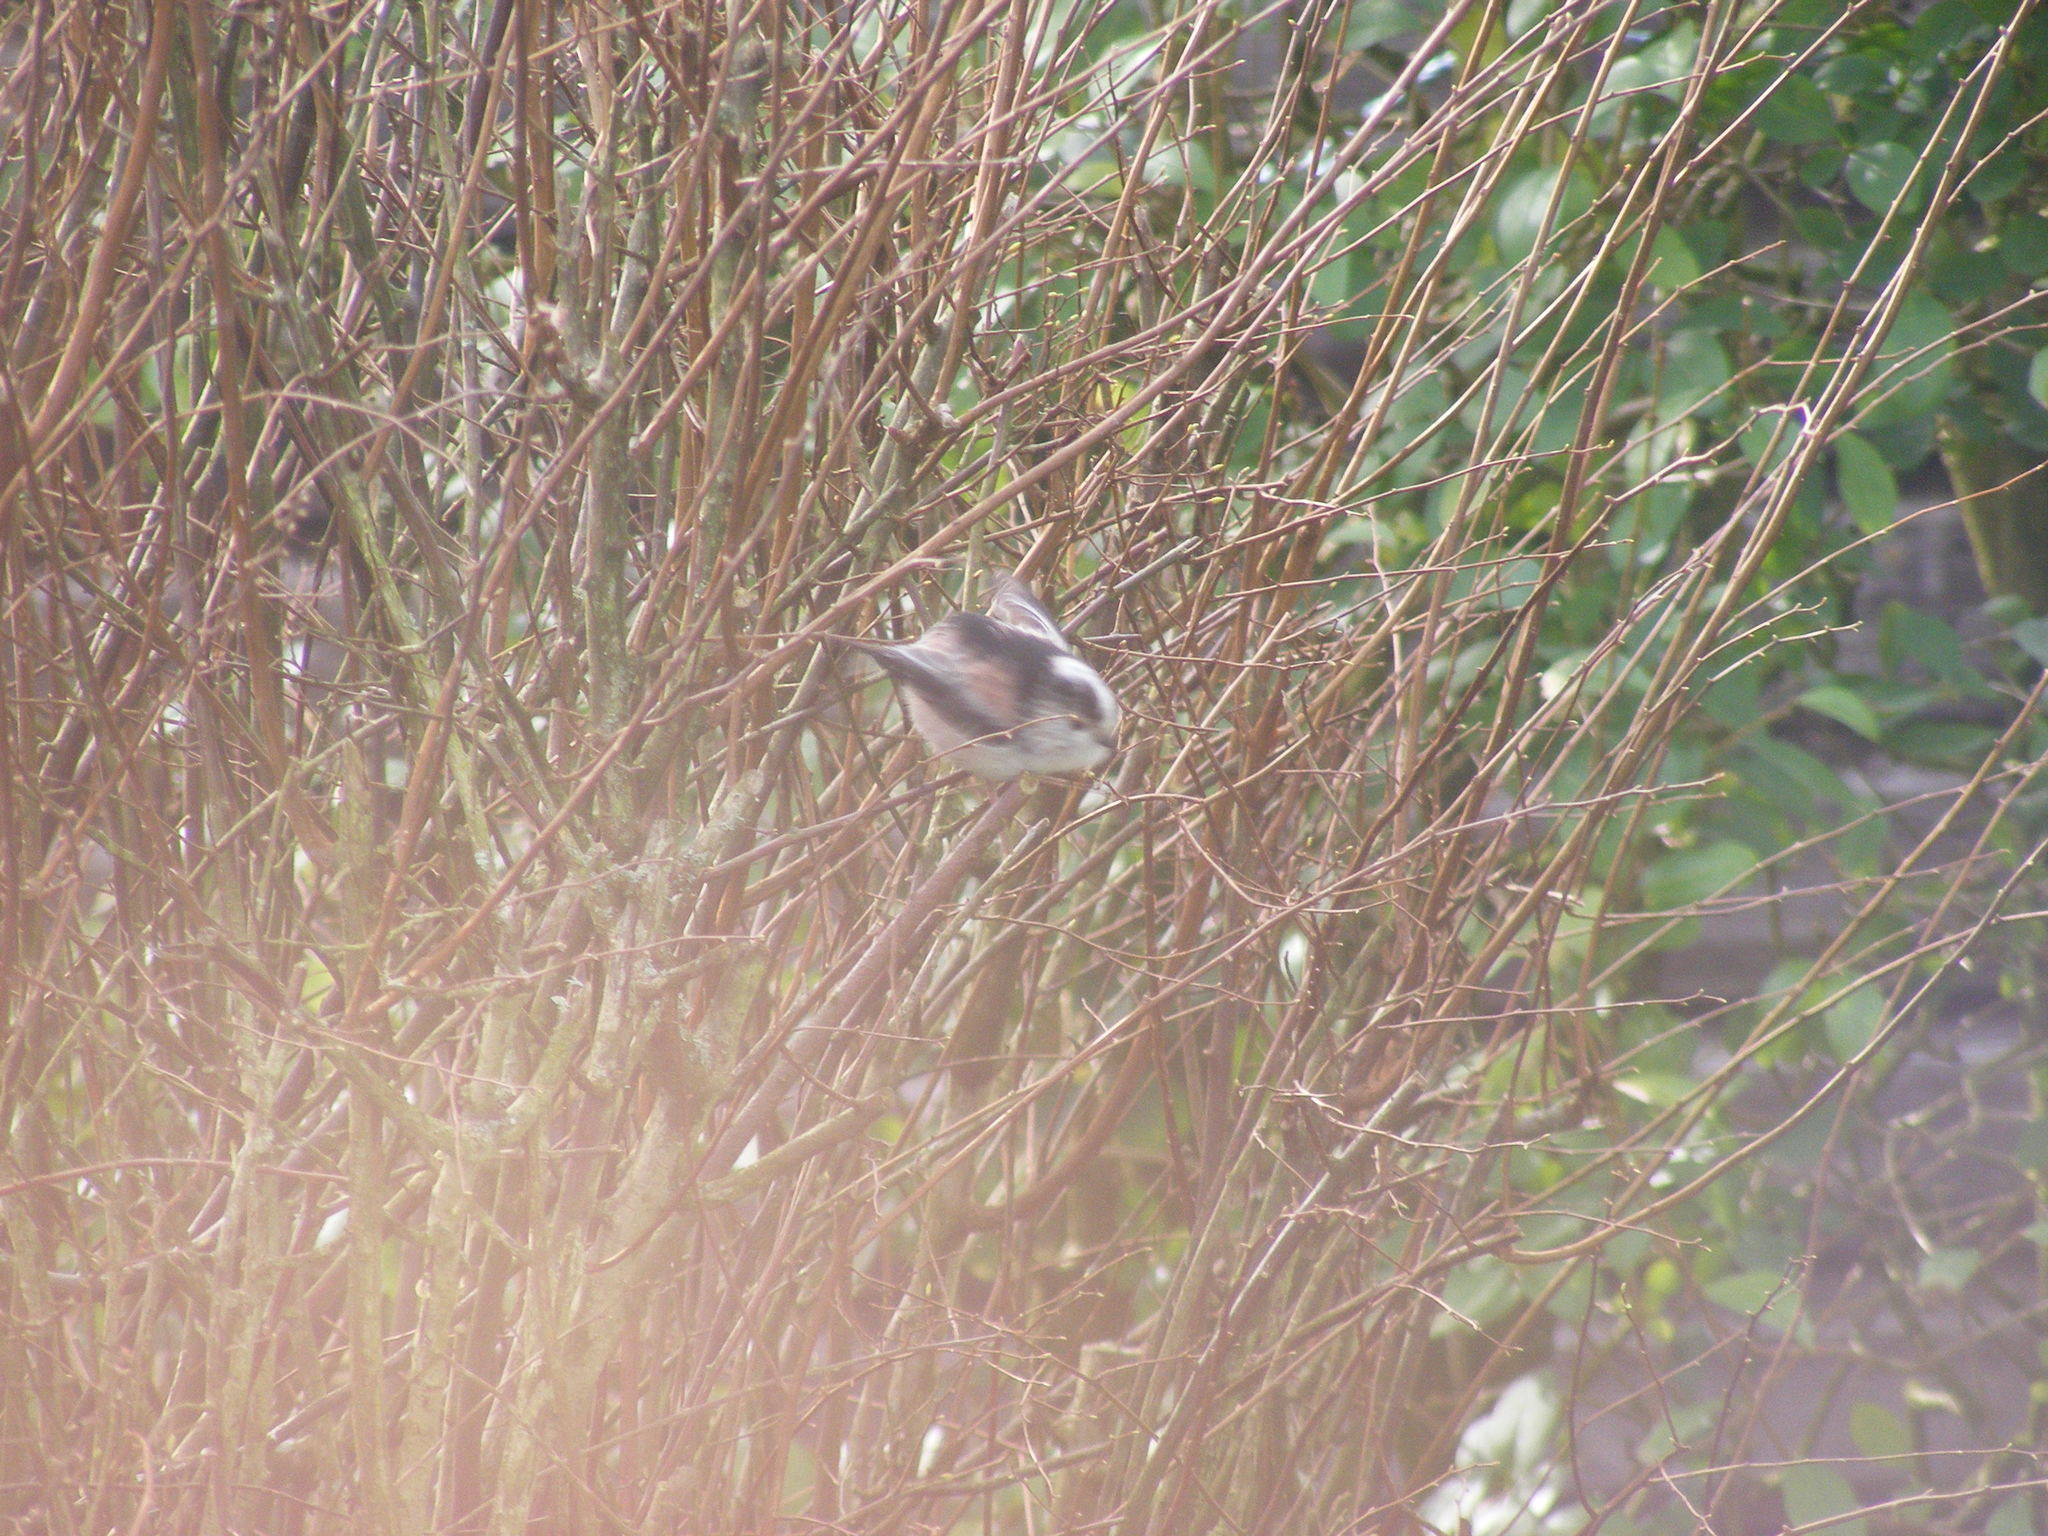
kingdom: Animalia
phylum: Chordata
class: Aves
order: Passeriformes
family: Aegithalidae
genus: Aegithalos
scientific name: Aegithalos caudatus
